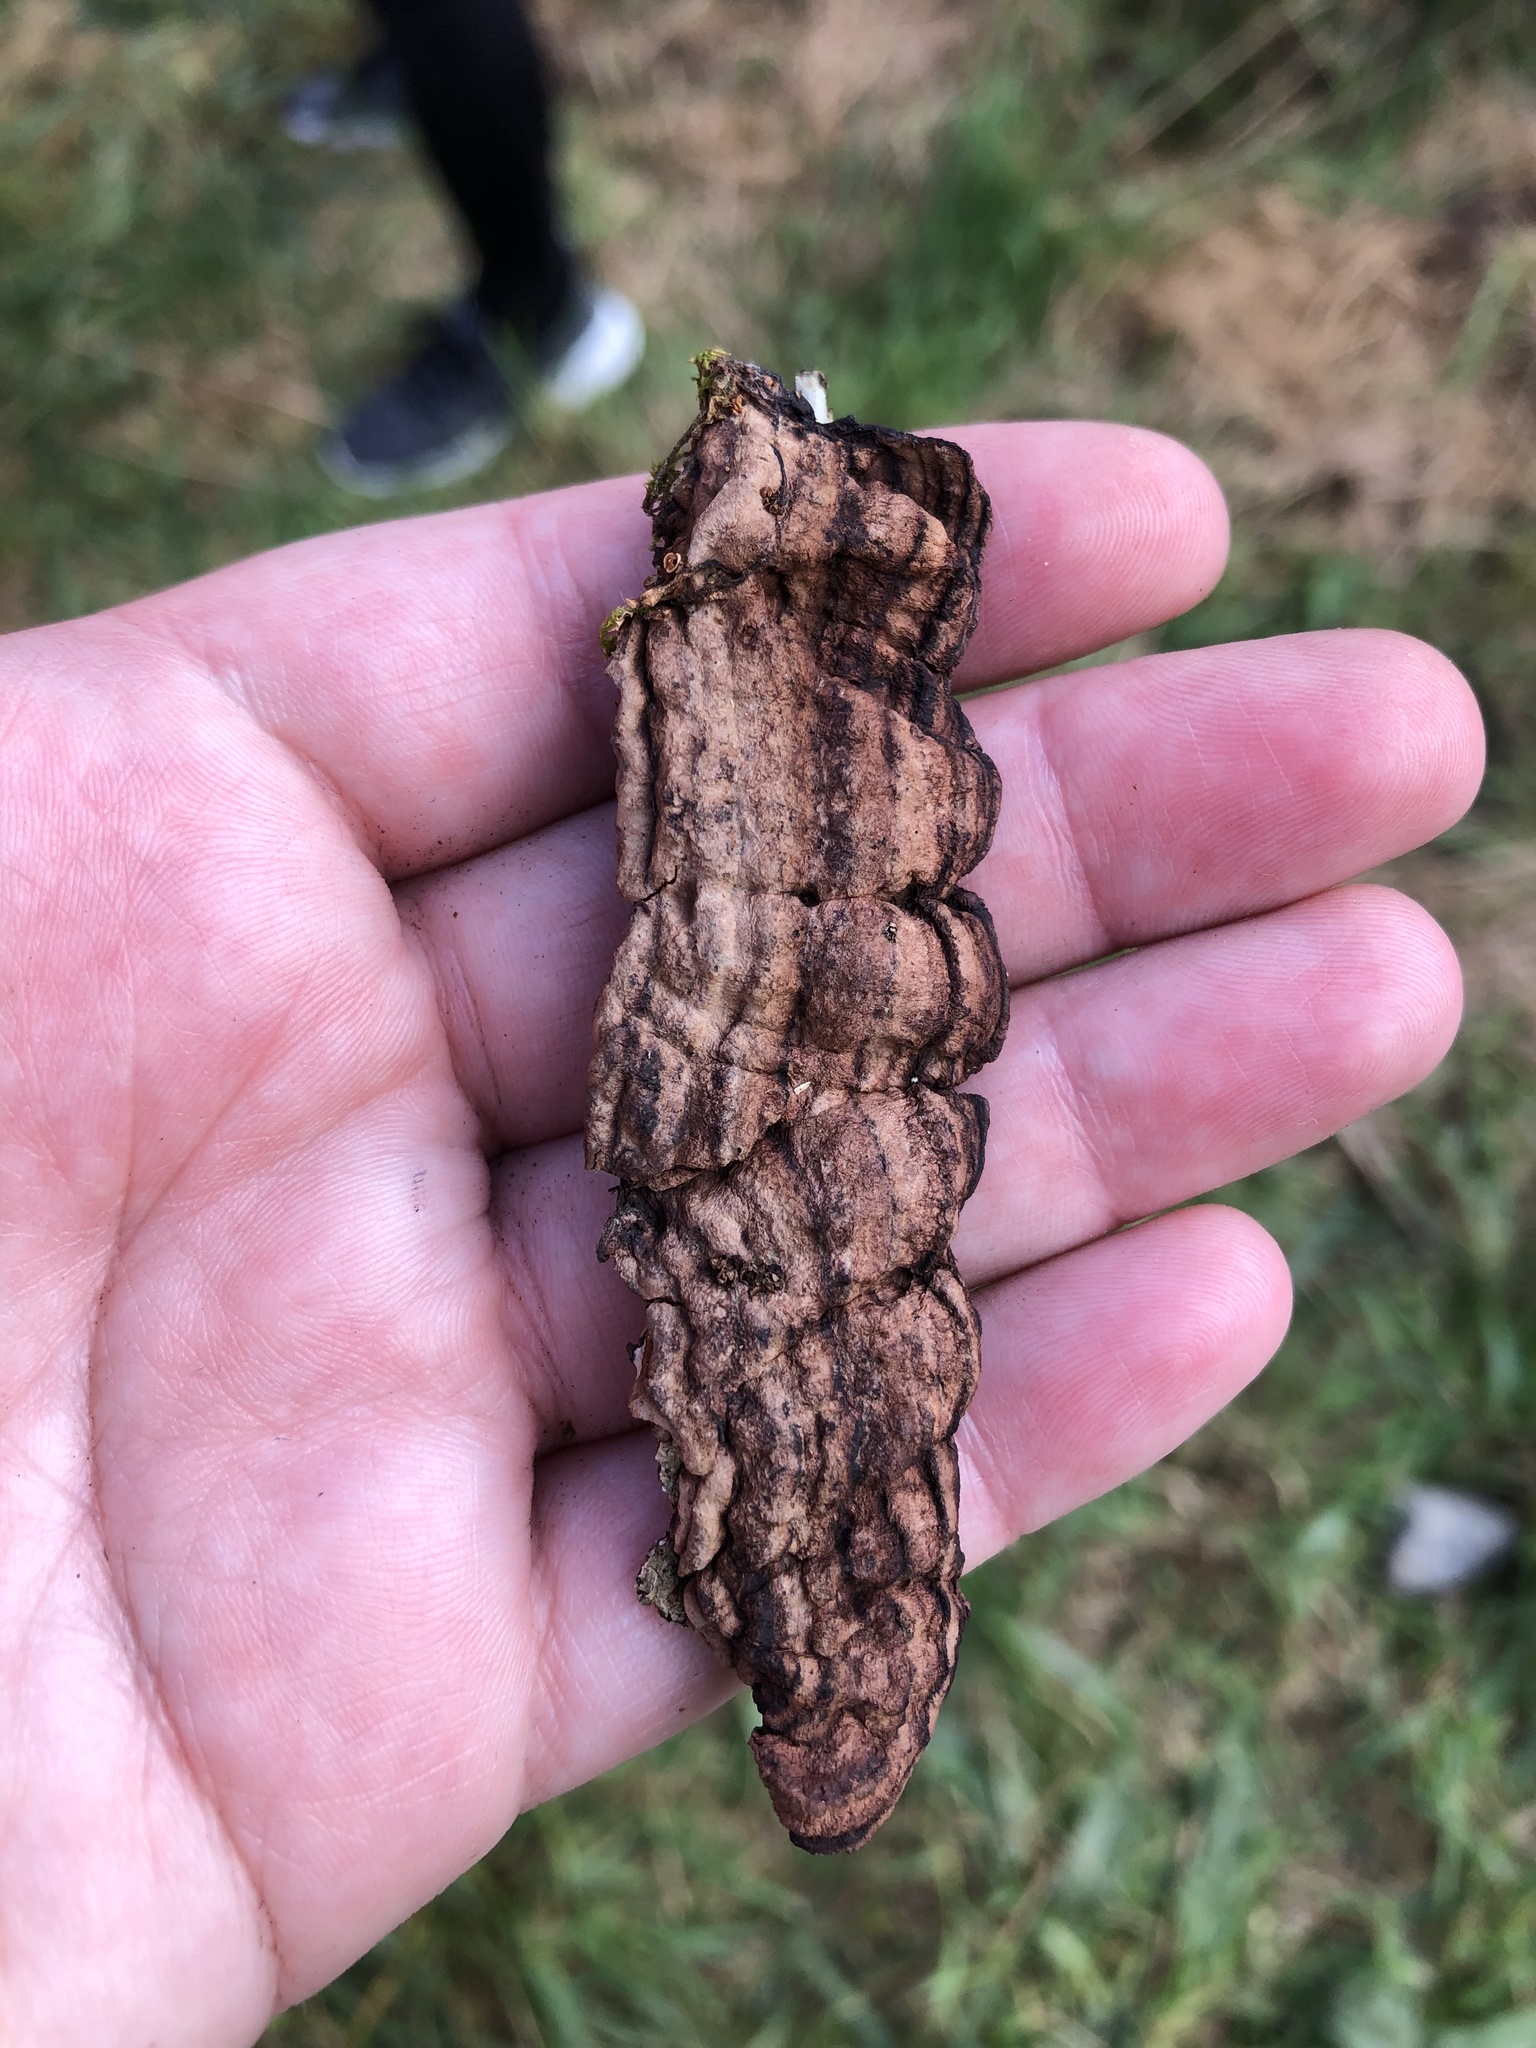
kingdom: Fungi
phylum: Basidiomycota
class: Agaricomycetes
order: Corticiales
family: Punctulariaceae
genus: Punctularia
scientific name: Punctularia strigosozonata
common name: White-rot fungus
